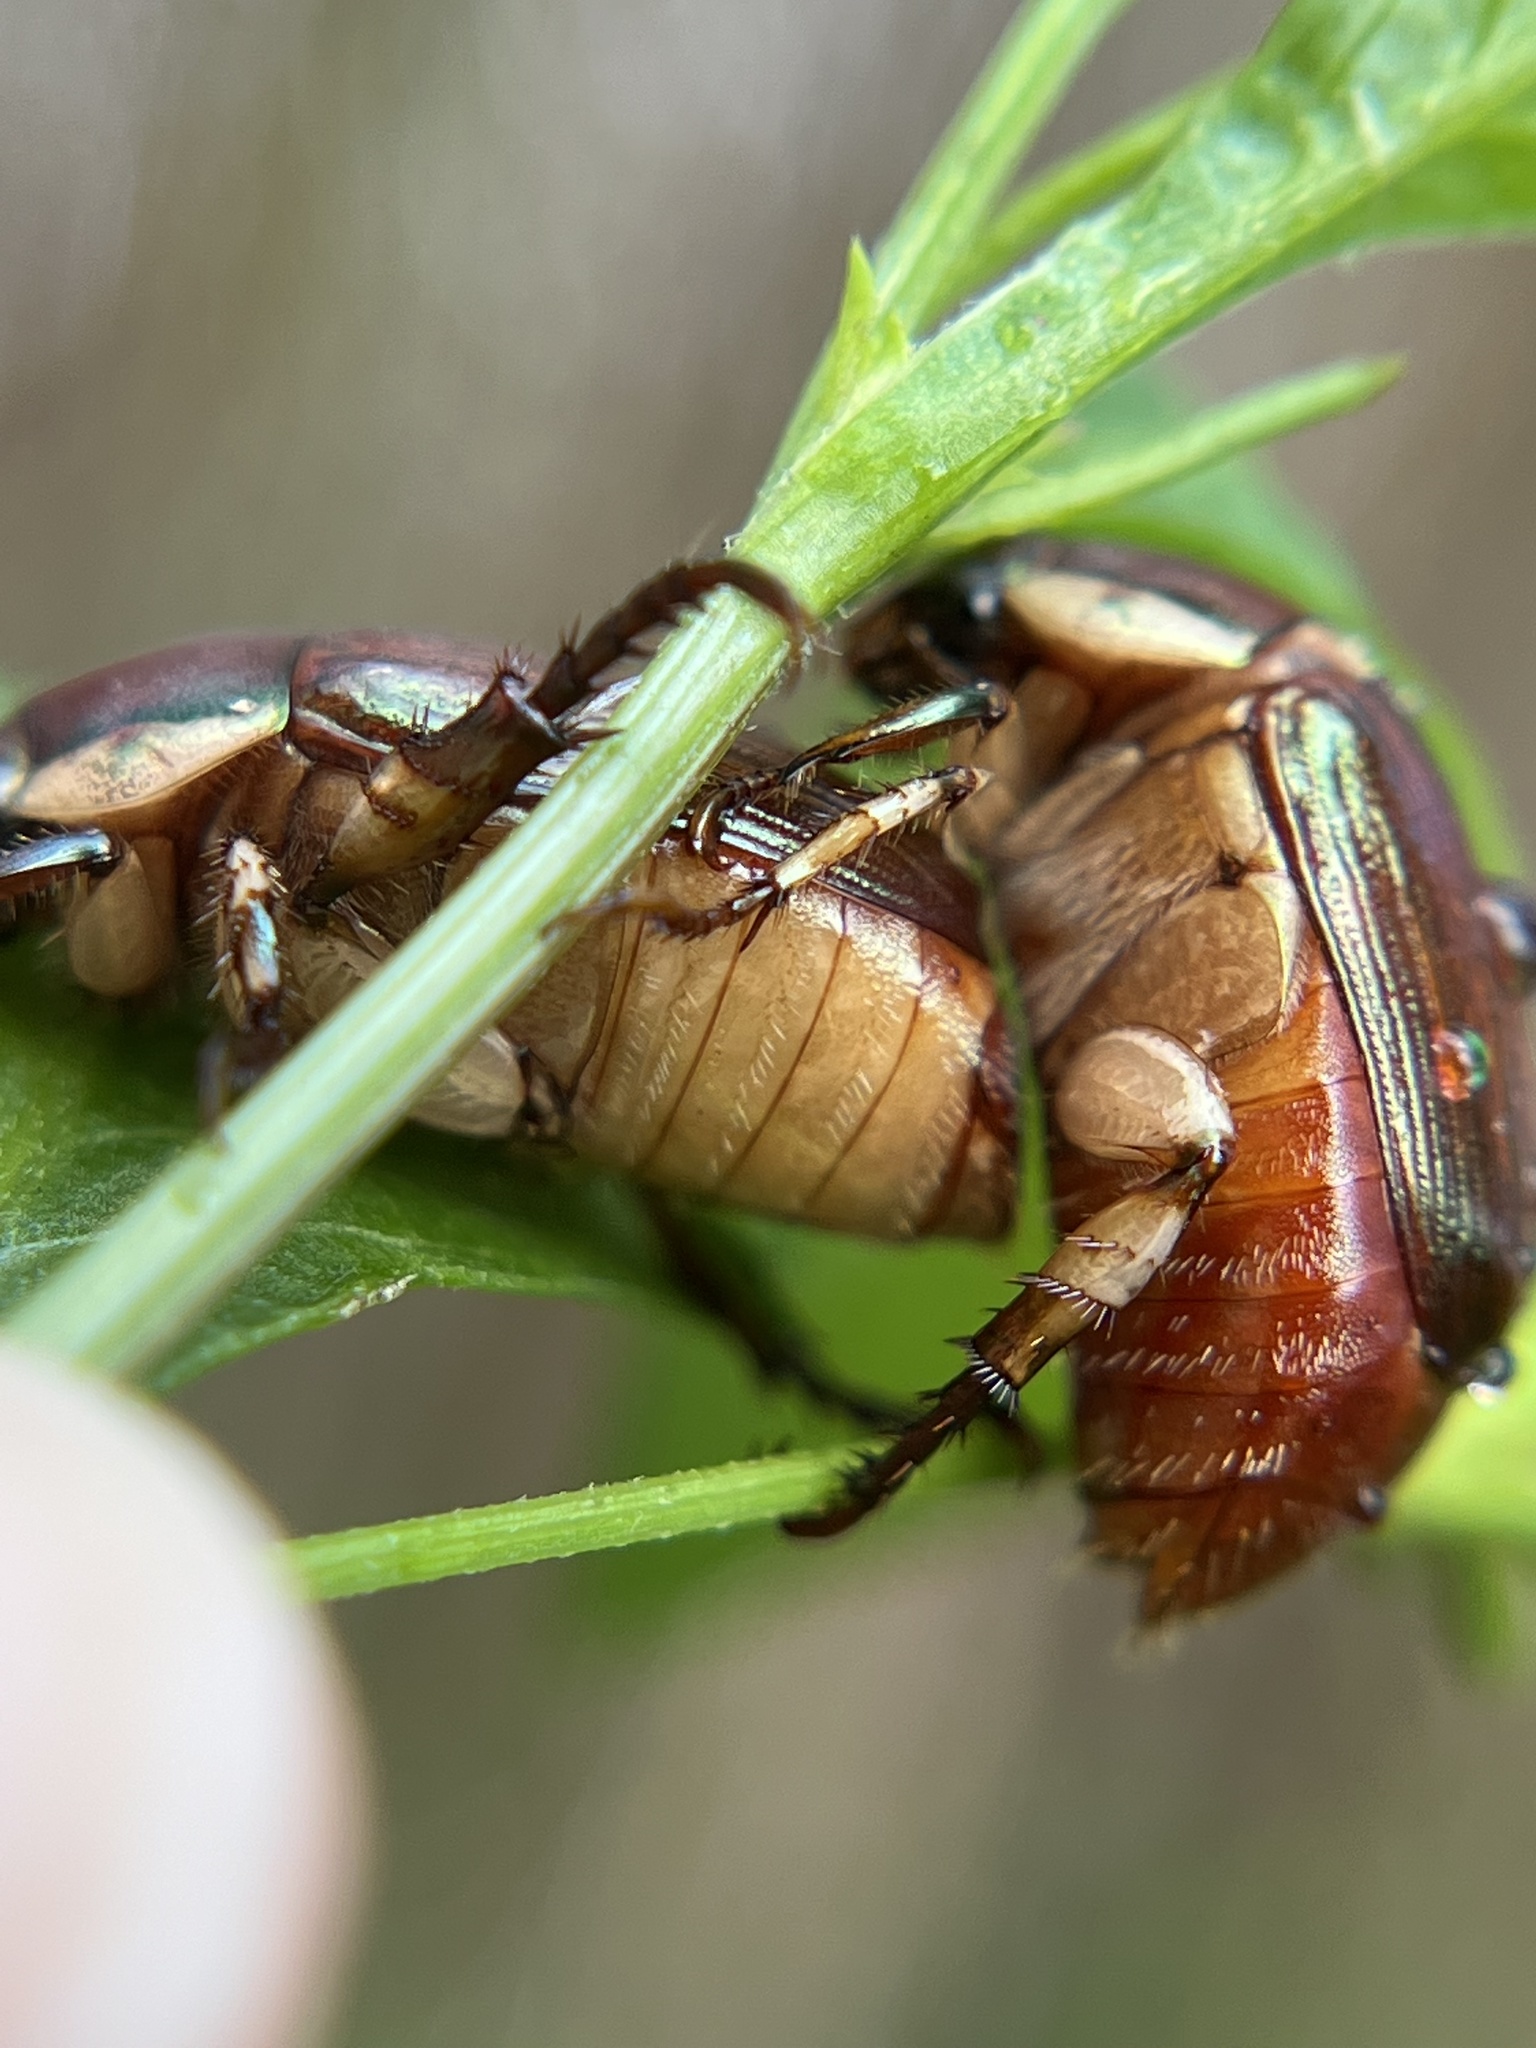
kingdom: Animalia
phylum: Arthropoda
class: Insecta
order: Coleoptera
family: Scarabaeidae
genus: Callistethus
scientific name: Callistethus marginatus
